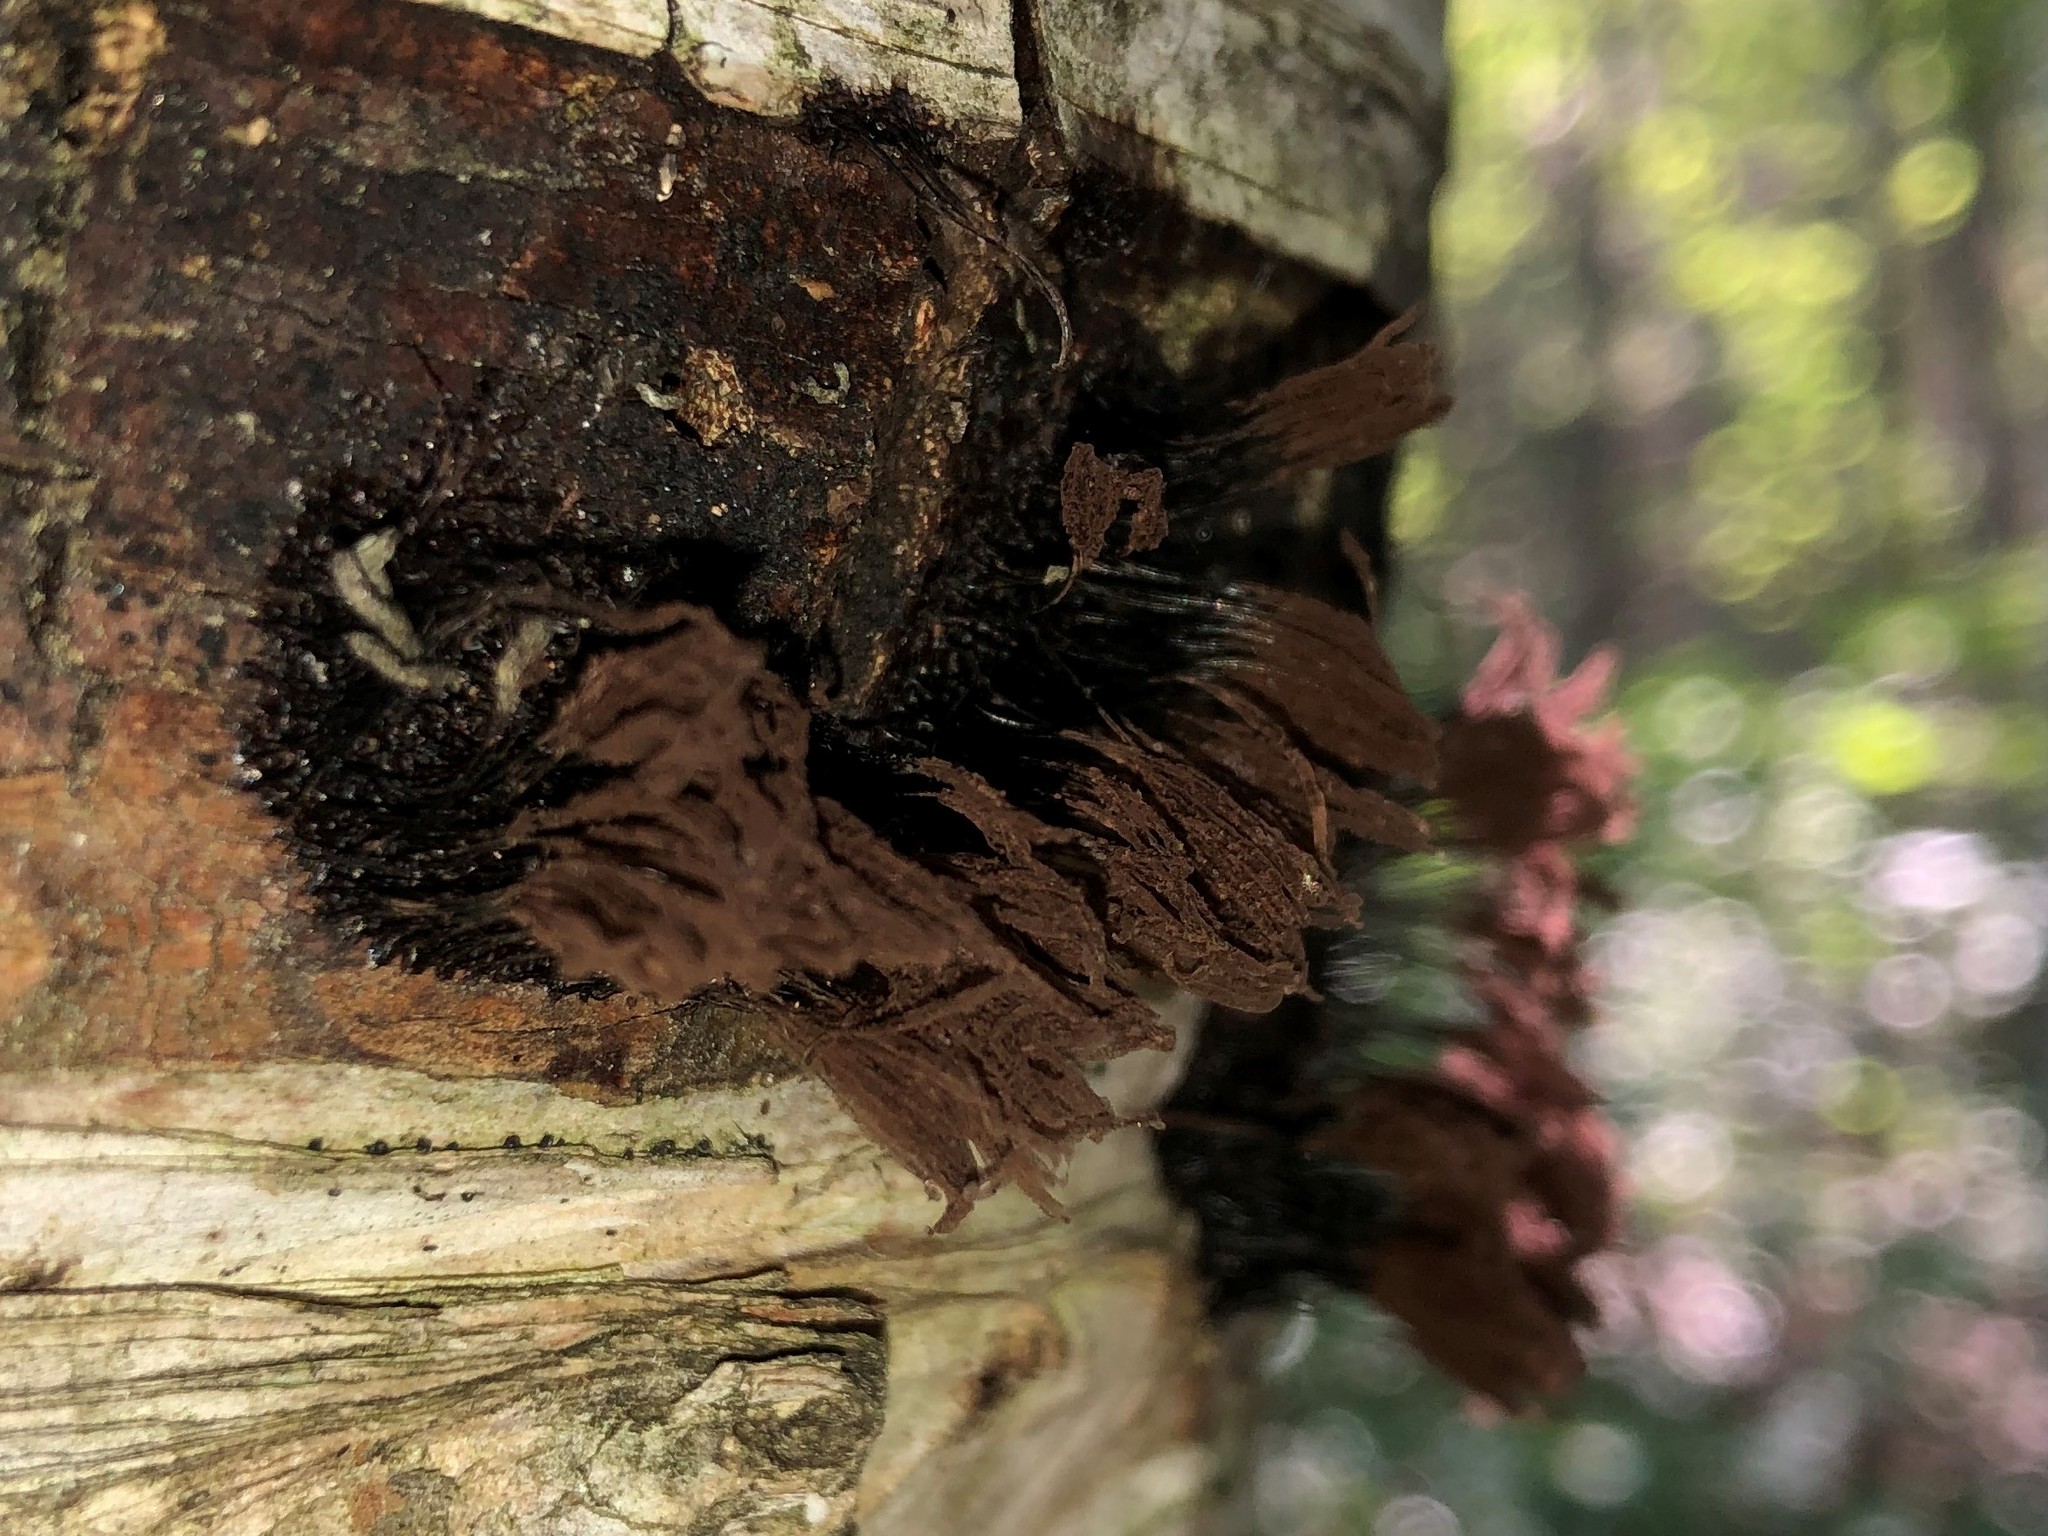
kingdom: Protozoa
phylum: Mycetozoa
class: Myxomycetes
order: Stemonitidales
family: Stemonitidaceae
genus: Stemonitis
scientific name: Stemonitis splendens
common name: Chocolate tube slime
